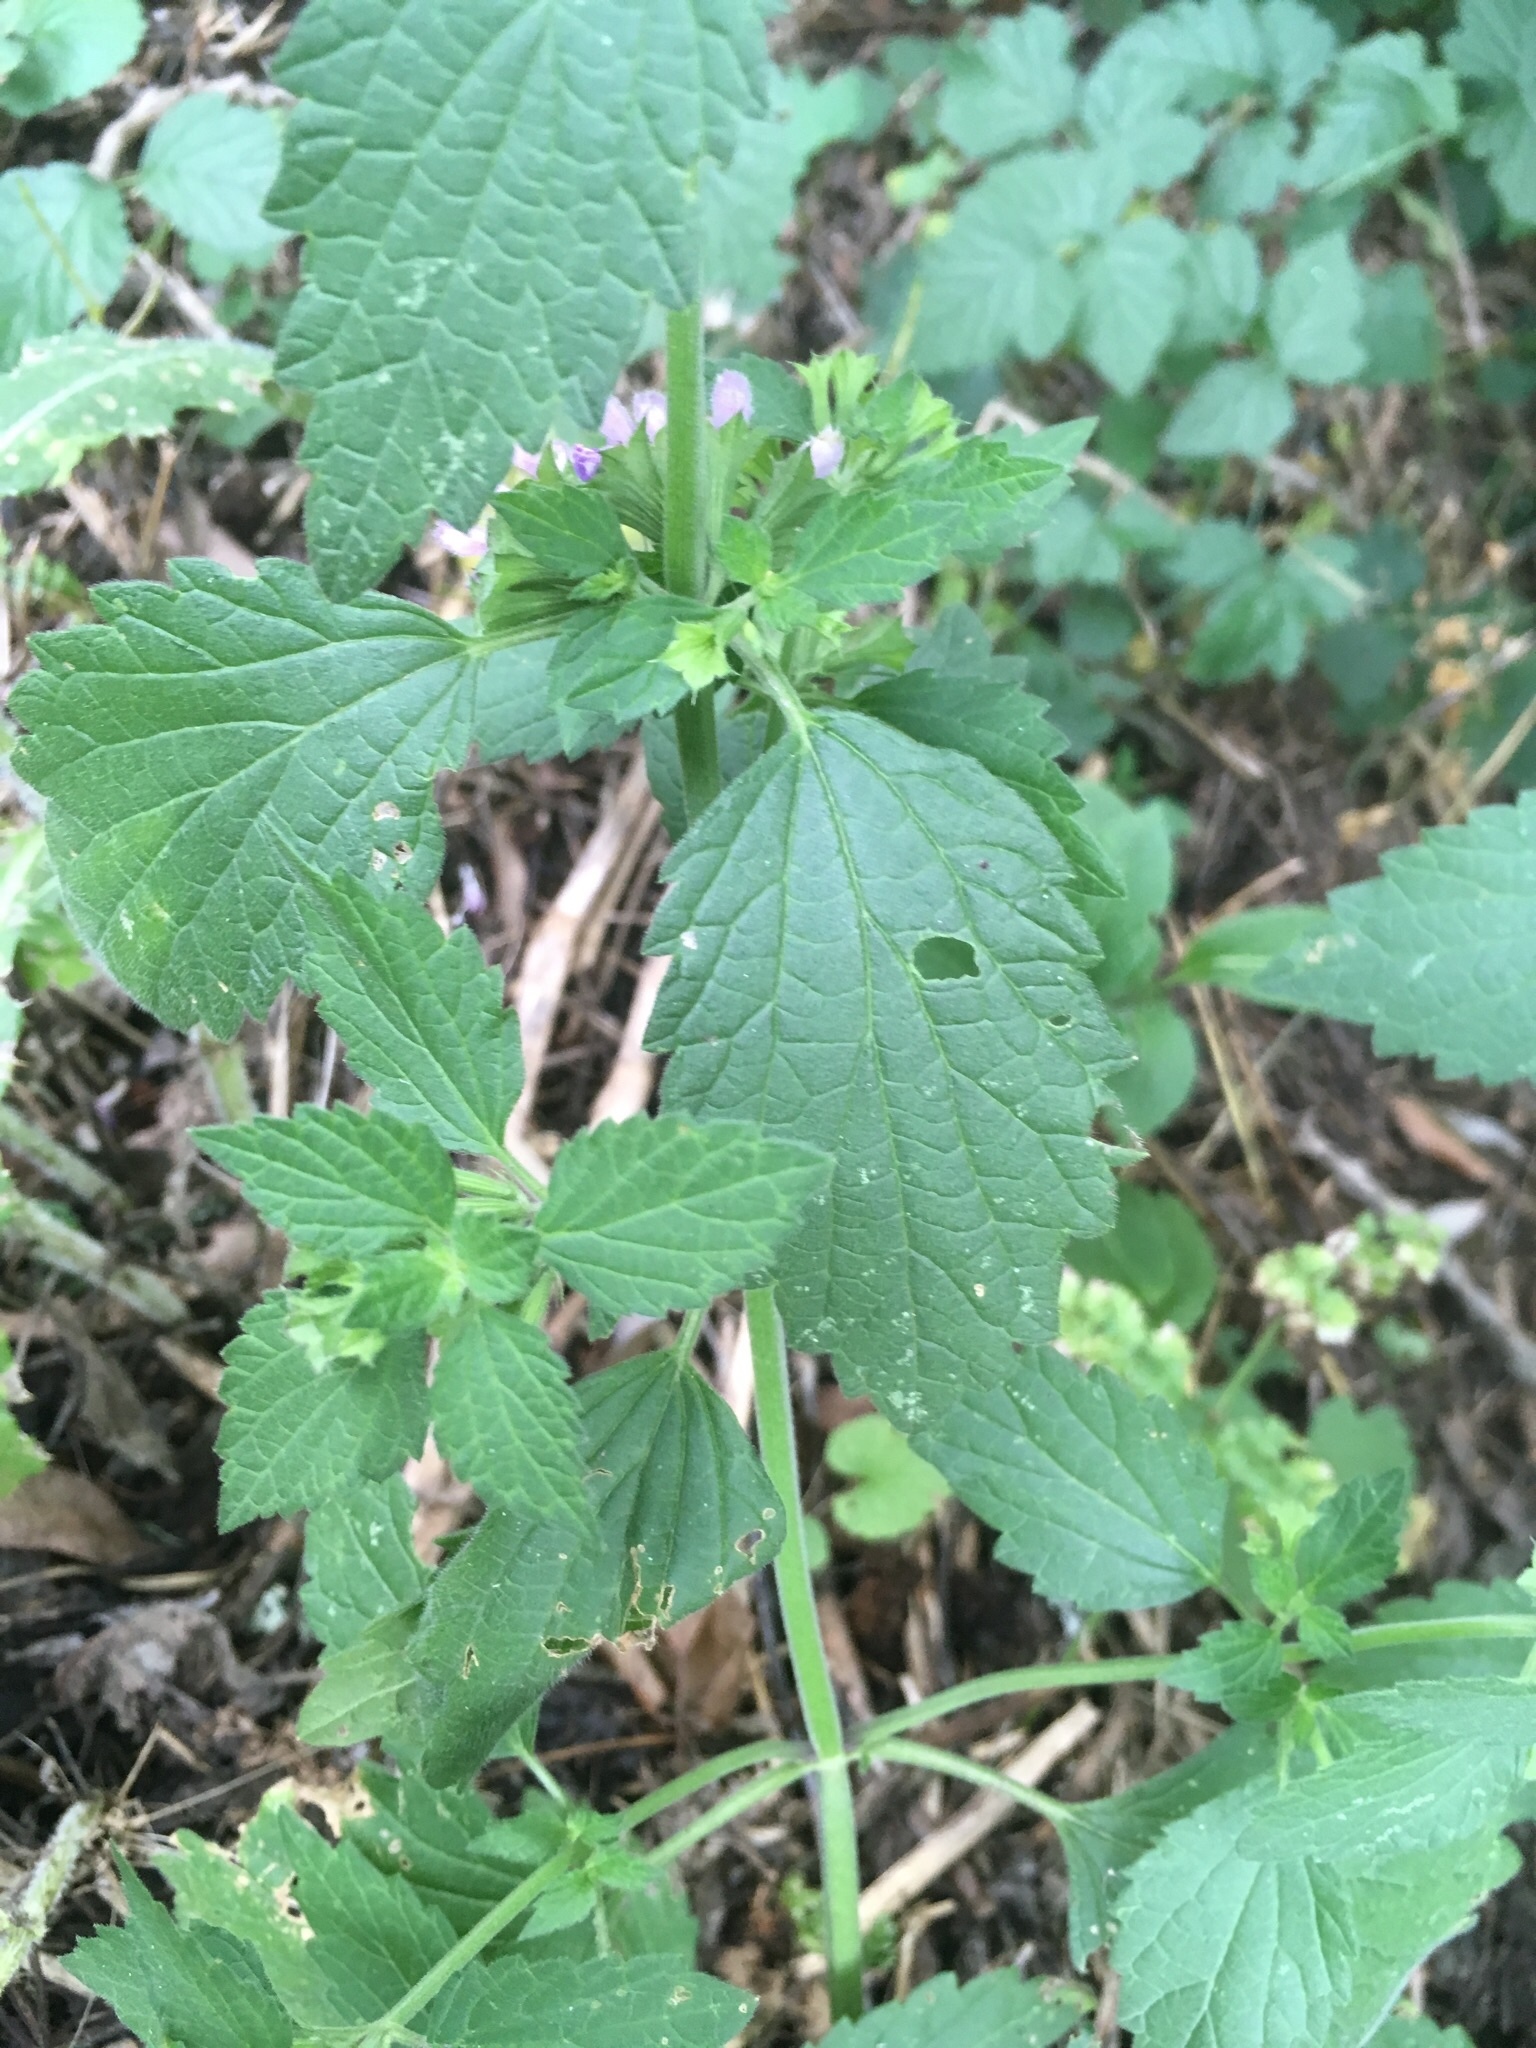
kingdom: Plantae
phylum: Tracheophyta
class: Magnoliopsida
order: Lamiales
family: Lamiaceae
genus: Ballota
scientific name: Ballota nigra
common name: Black horehound
